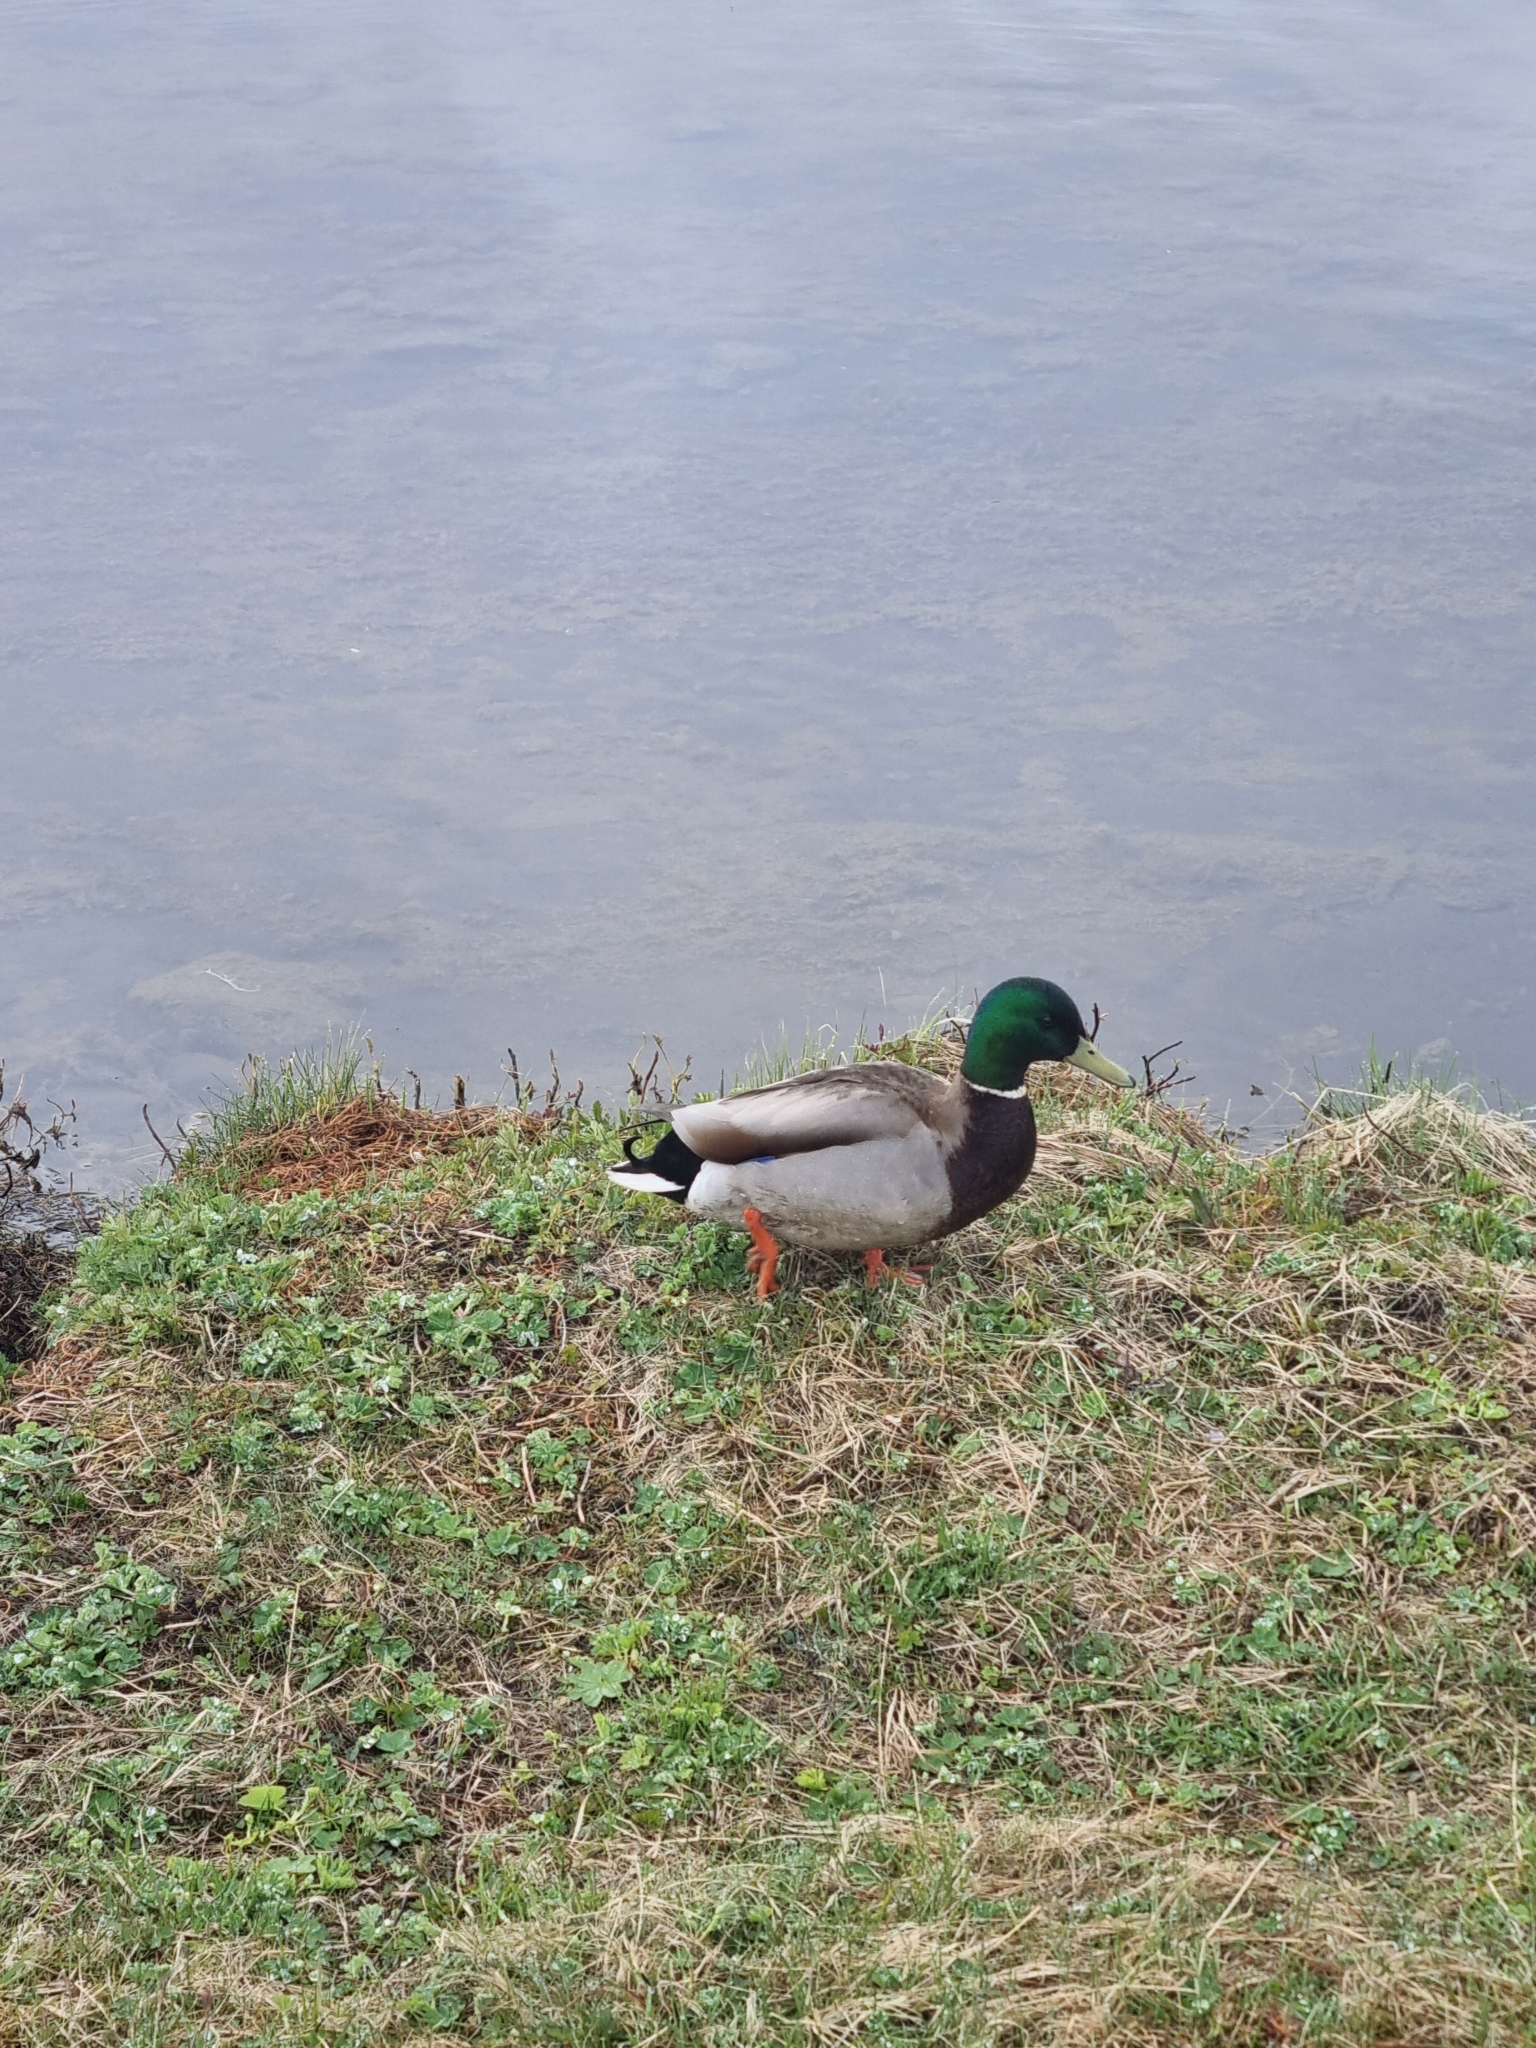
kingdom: Animalia
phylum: Chordata
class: Aves
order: Anseriformes
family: Anatidae
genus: Anas
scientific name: Anas platyrhynchos
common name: Mallard
